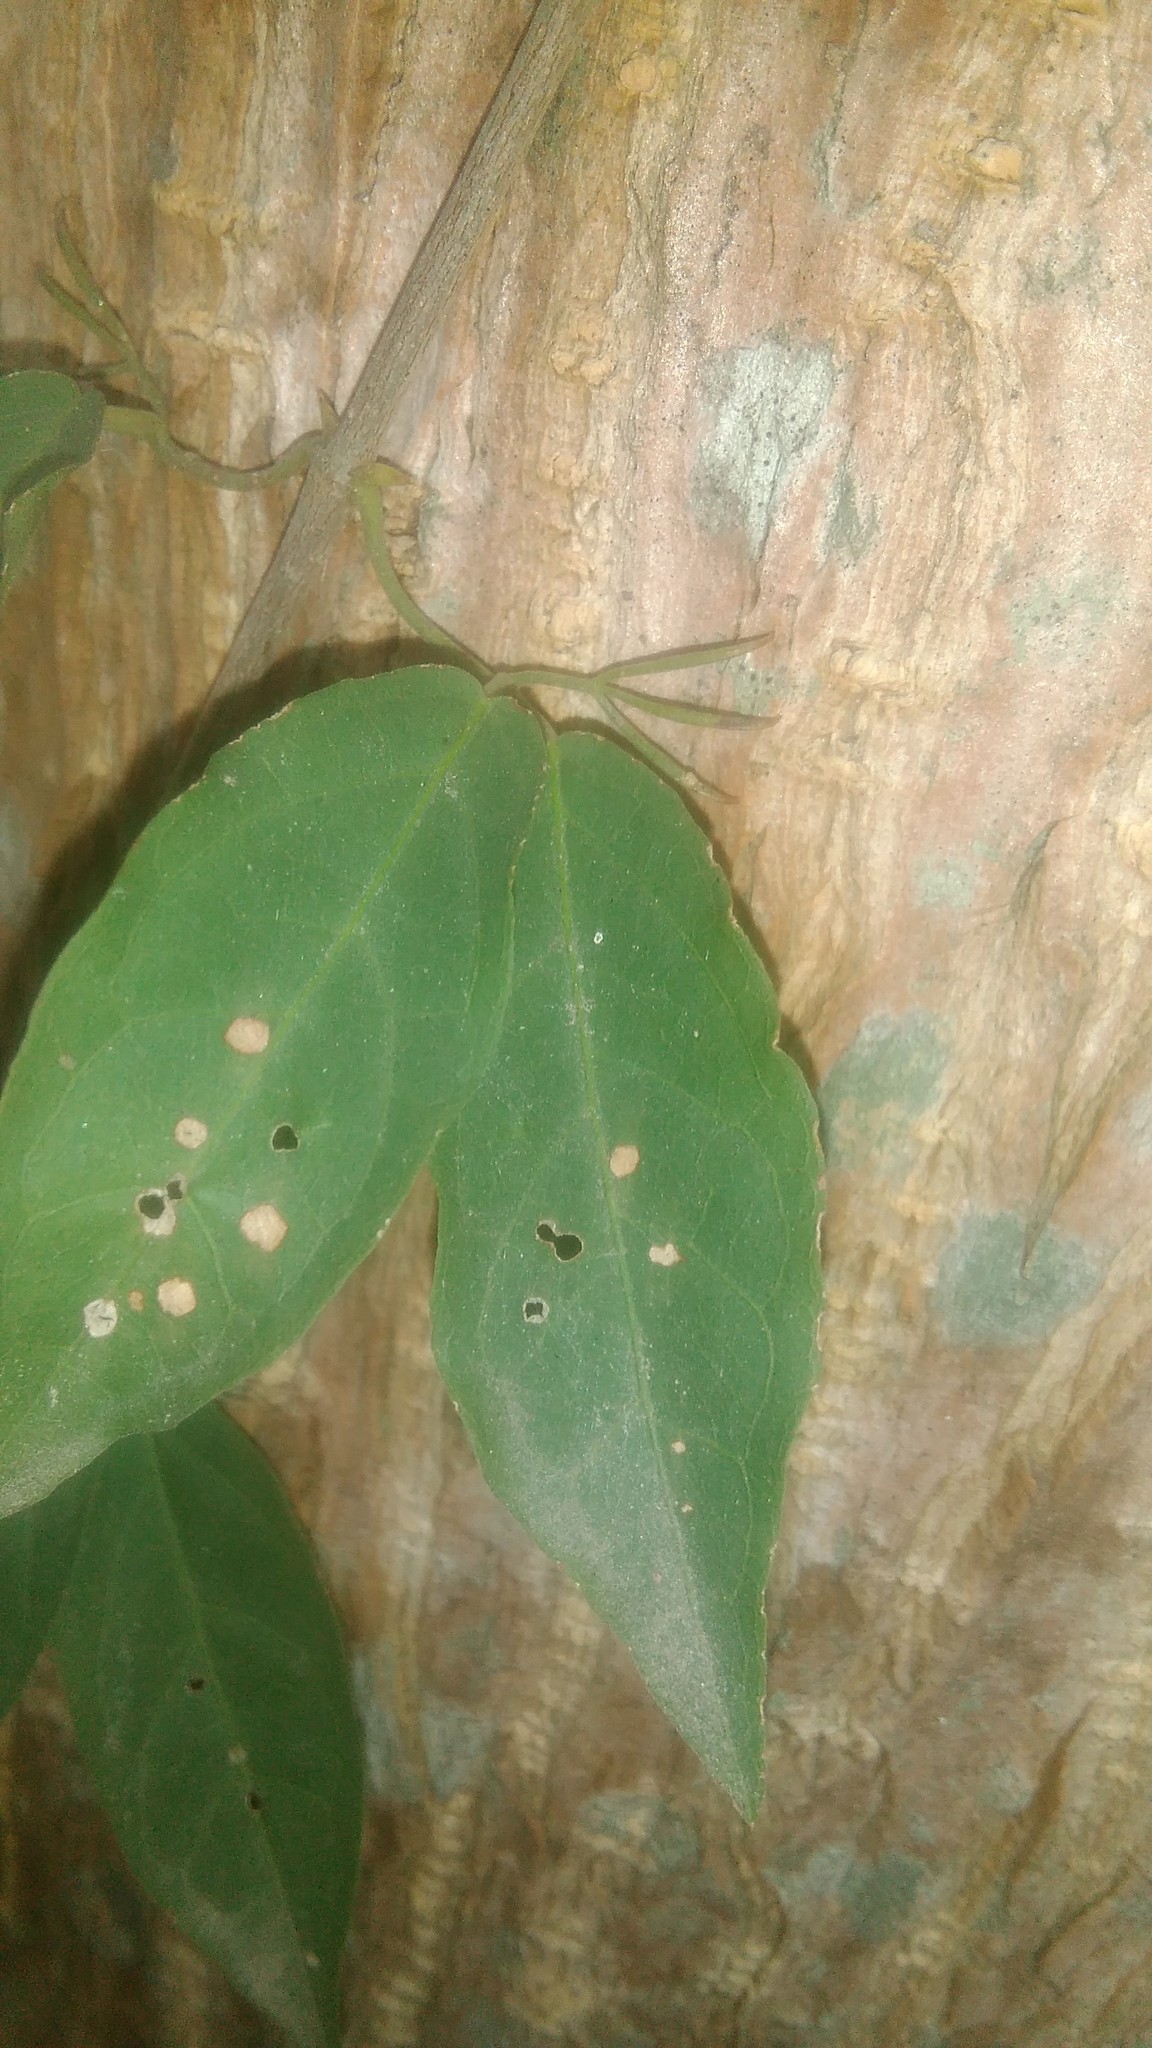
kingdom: Plantae
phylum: Tracheophyta
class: Magnoliopsida
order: Lamiales
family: Bignoniaceae
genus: Dolichandra
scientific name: Dolichandra unguis-cati
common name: Catclaw vine
